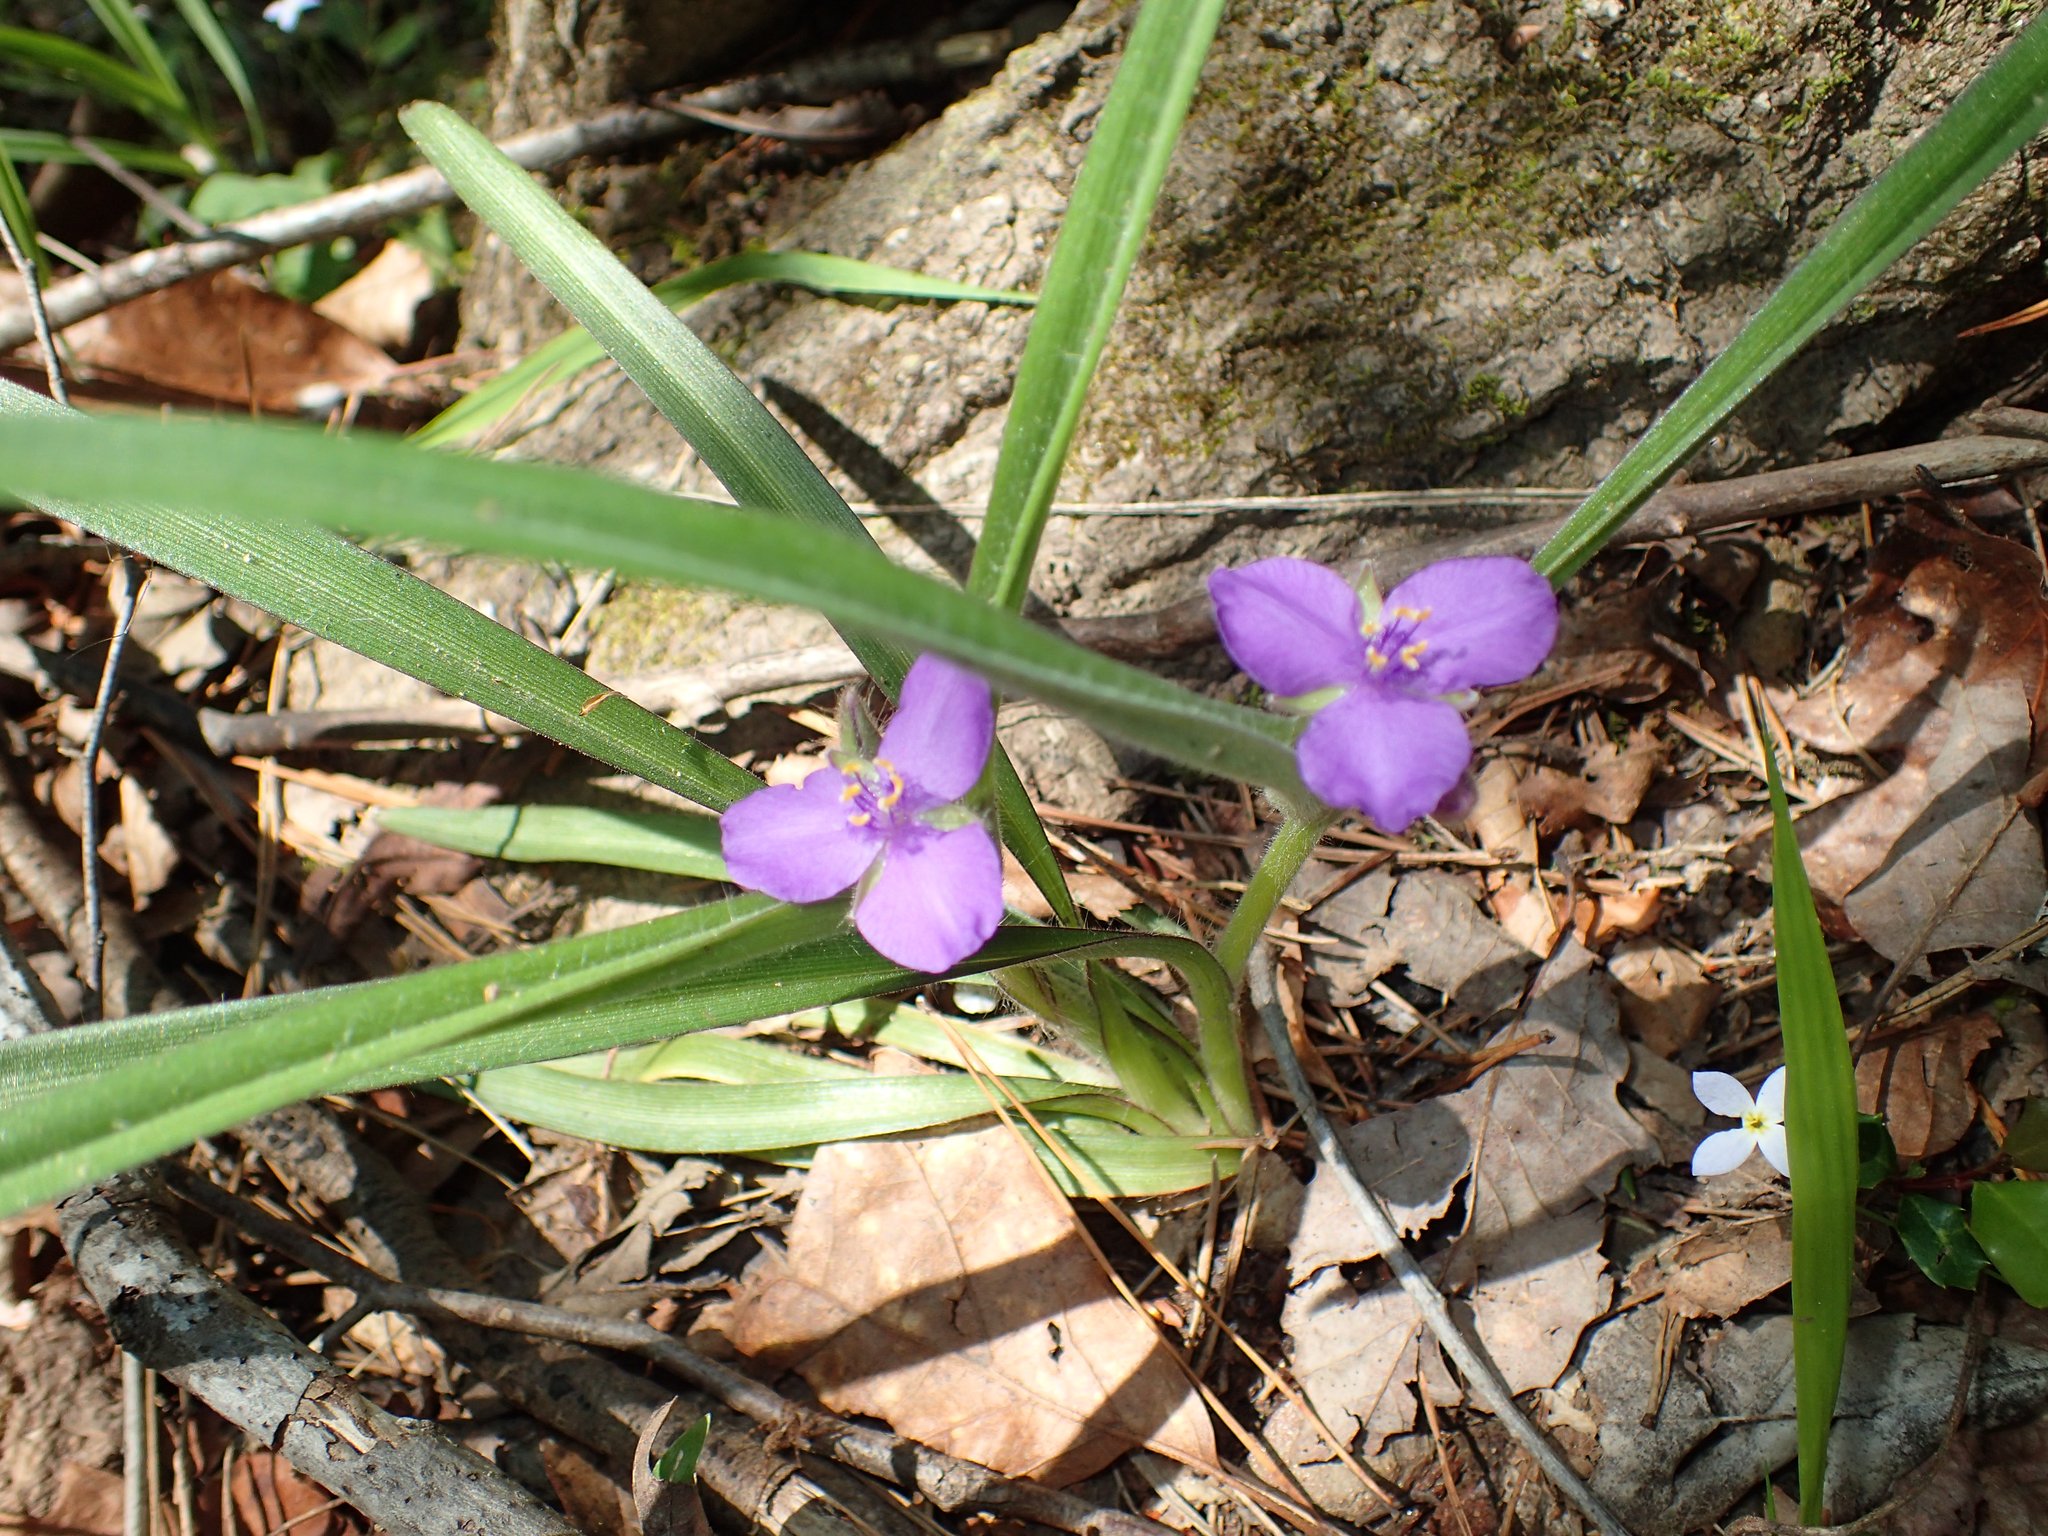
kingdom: Plantae
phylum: Tracheophyta
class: Liliopsida
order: Commelinales
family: Commelinaceae
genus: Tradescantia
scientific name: Tradescantia virginiana
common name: Spiderwort
